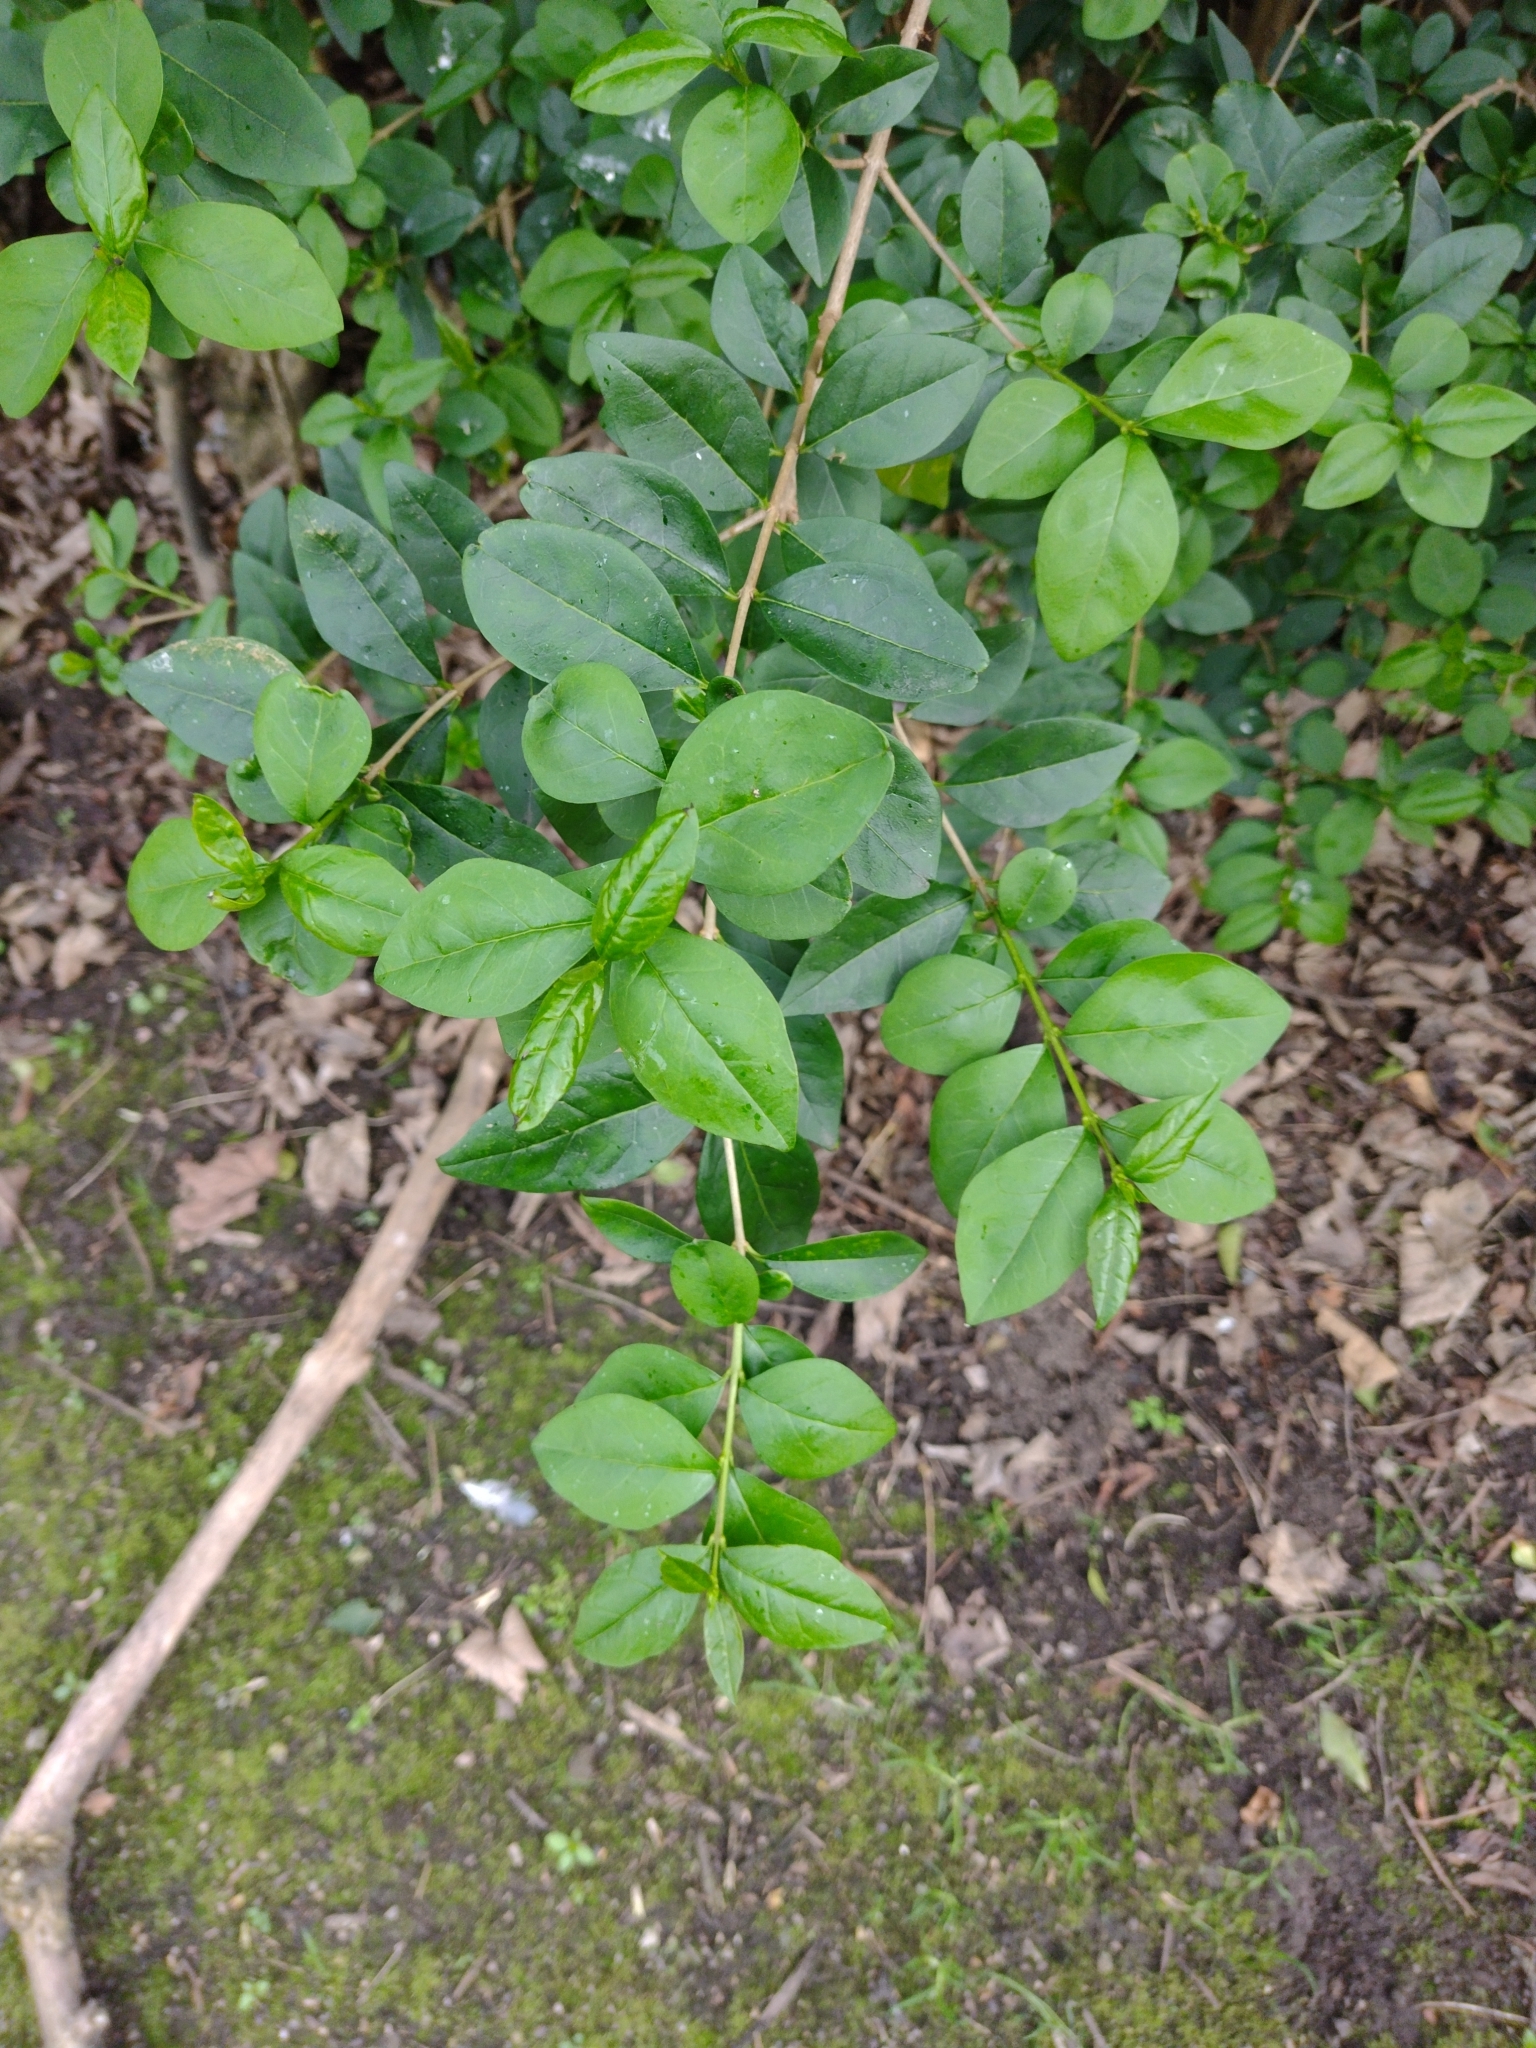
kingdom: Plantae
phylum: Tracheophyta
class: Magnoliopsida
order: Lamiales
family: Oleaceae
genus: Ligustrum
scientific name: Ligustrum ovalifolium
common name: California privet
